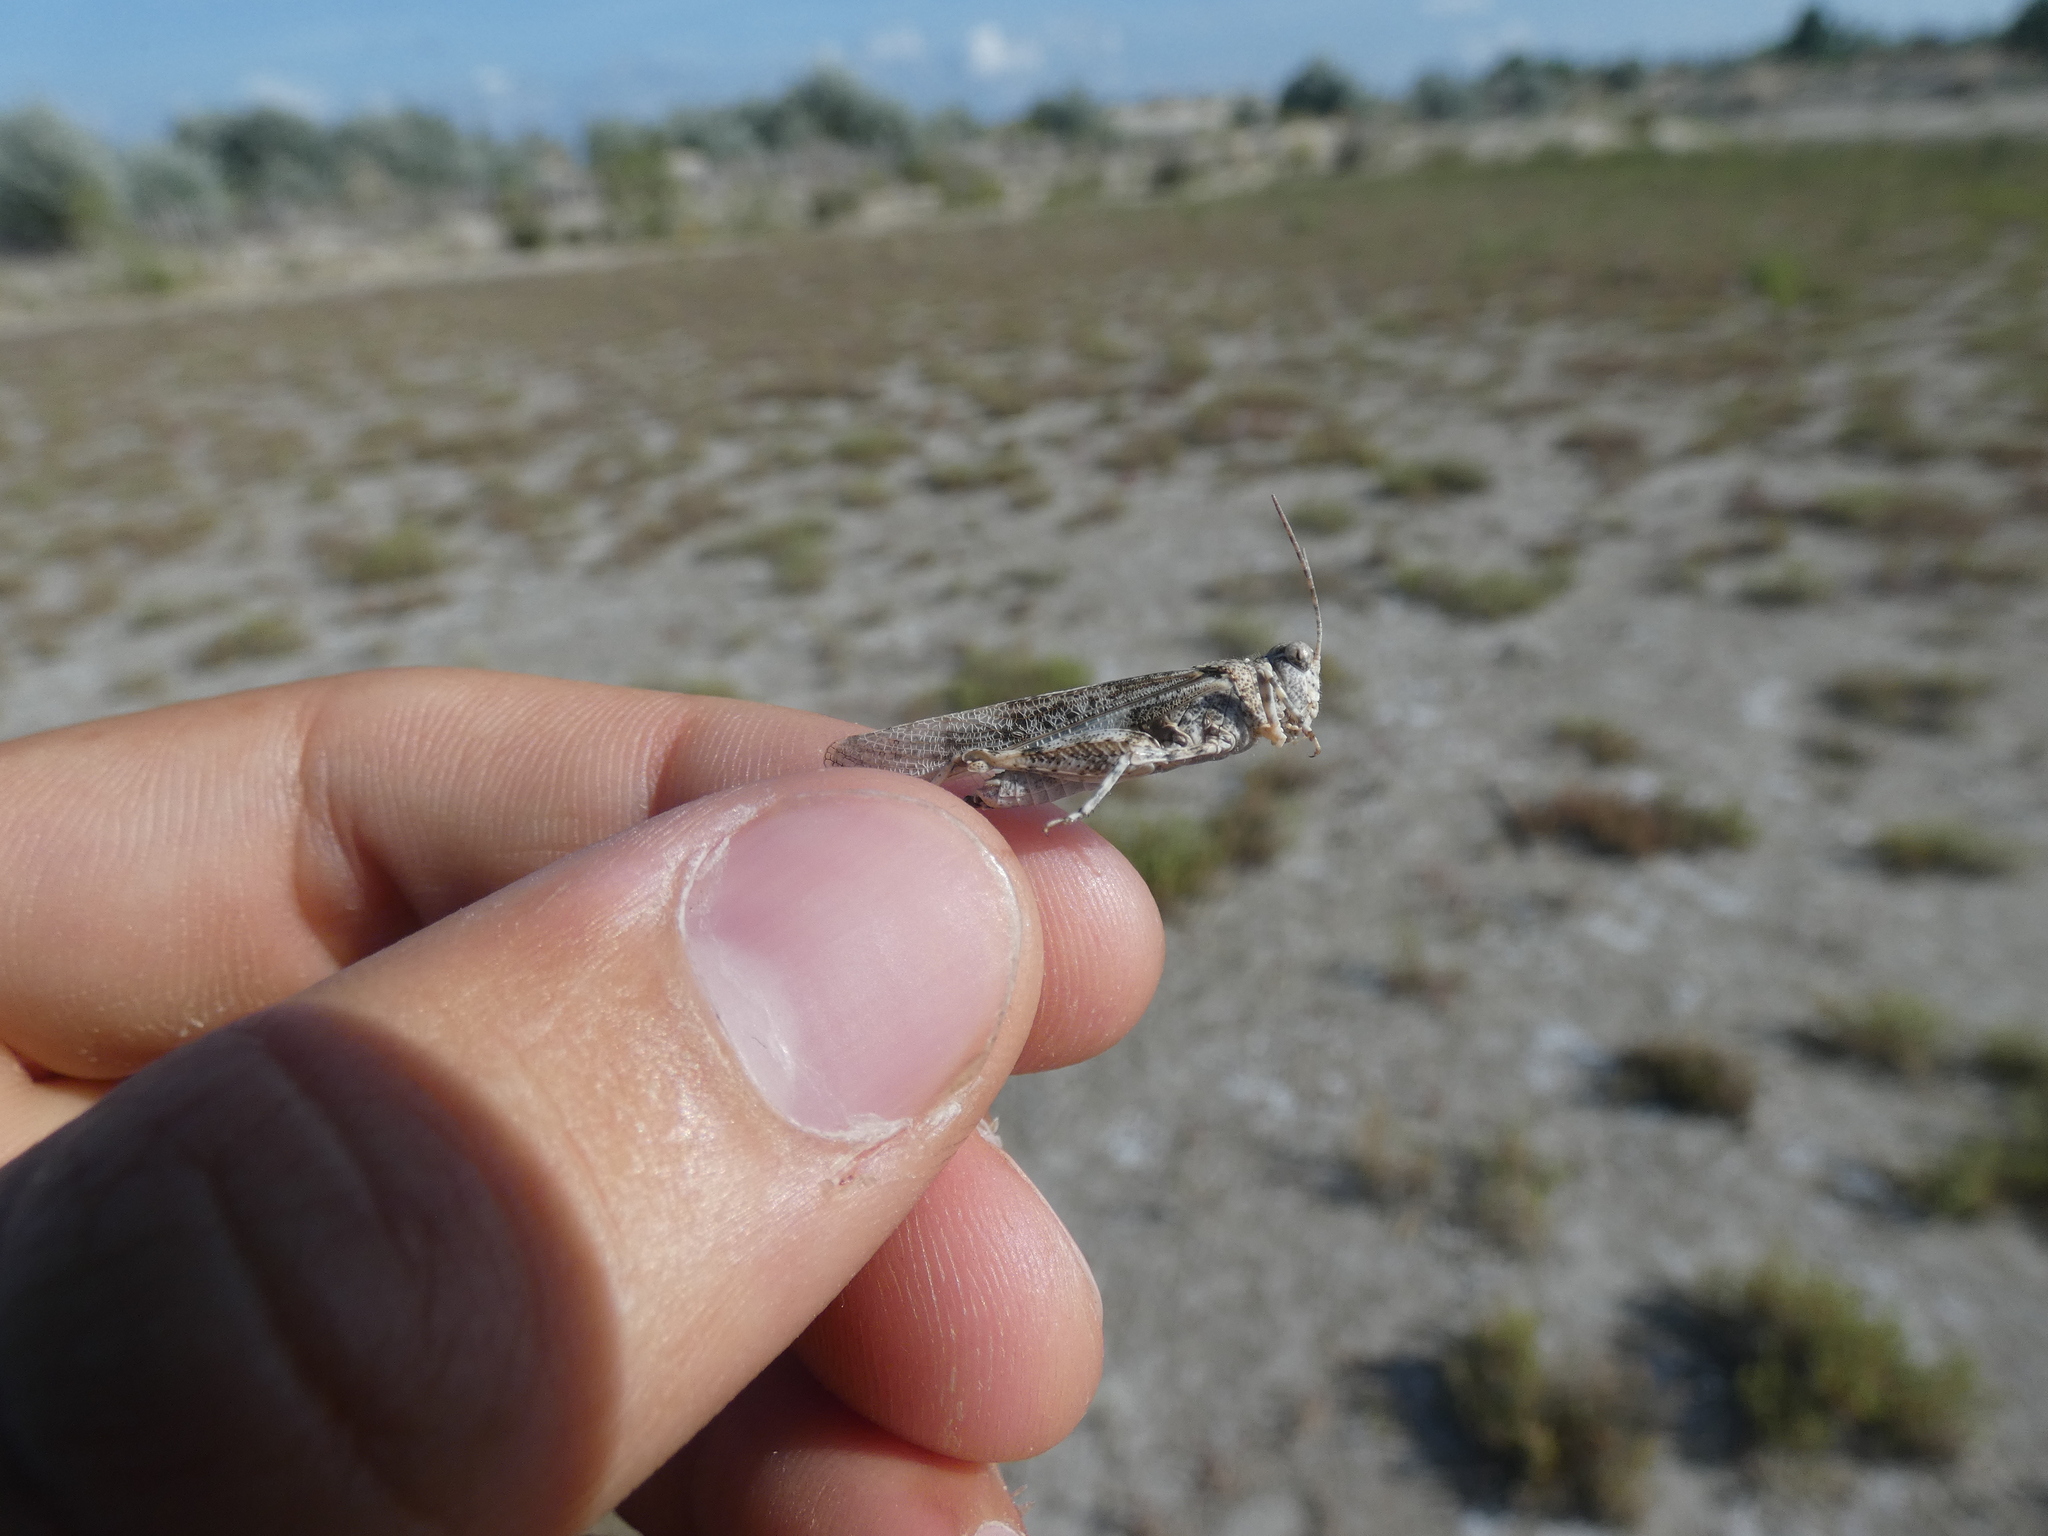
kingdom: Animalia
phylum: Arthropoda
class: Insecta
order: Orthoptera
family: Acrididae
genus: Sphingonotus
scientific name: Sphingonotus caerulans
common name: Blue-winged locust
